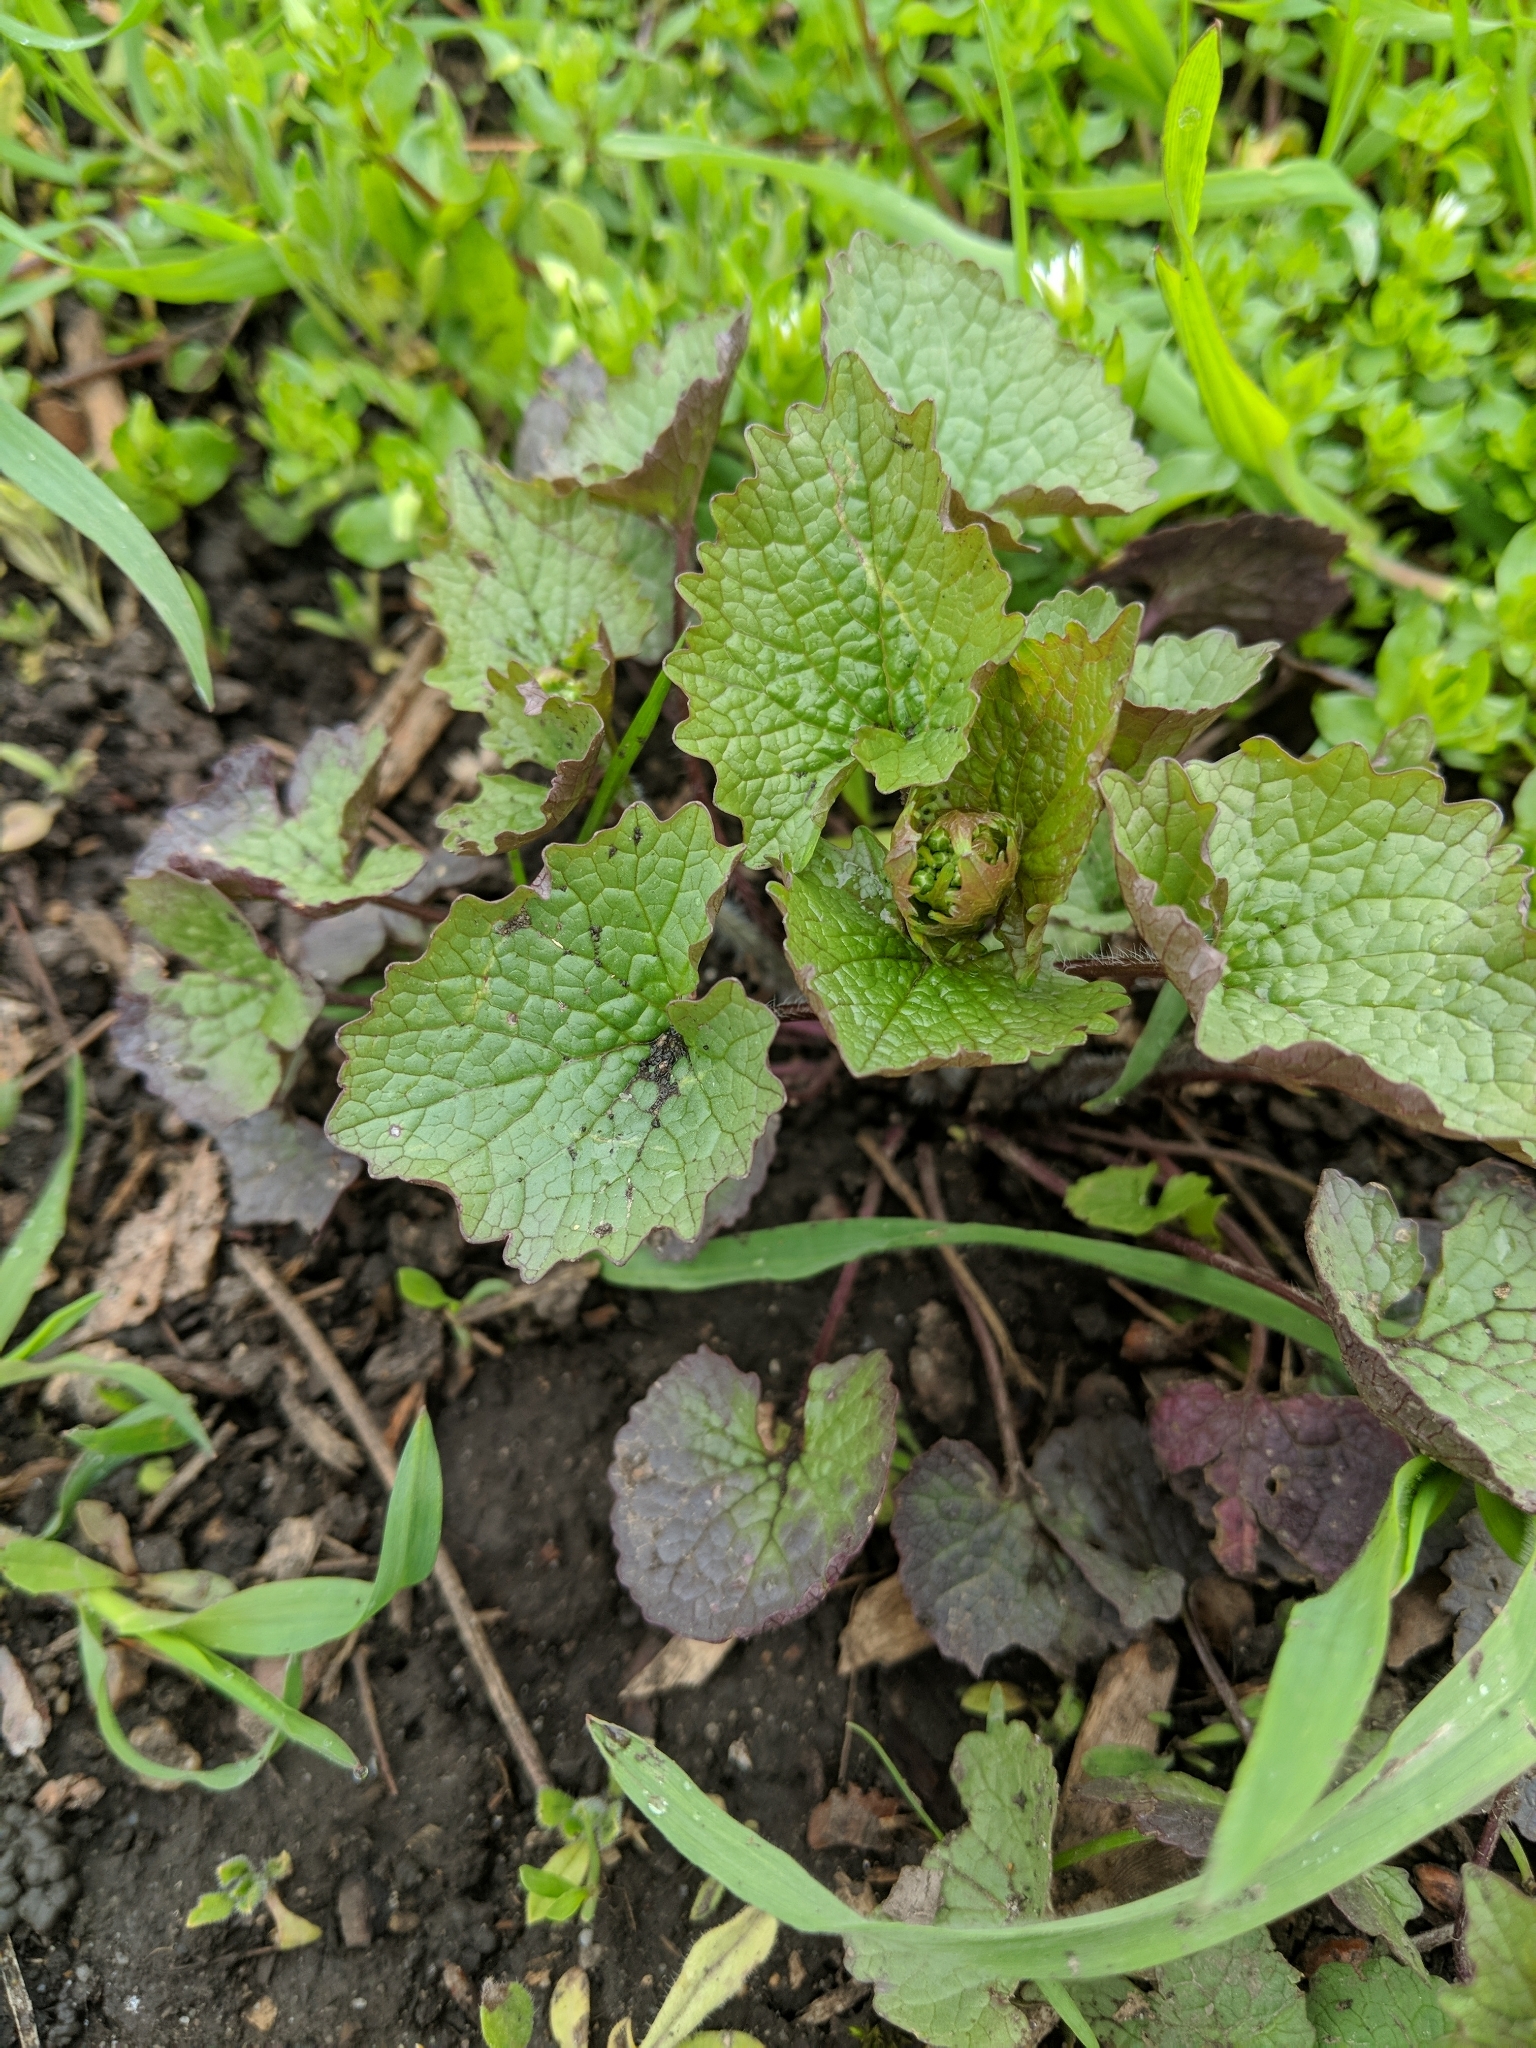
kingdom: Plantae
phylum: Tracheophyta
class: Magnoliopsida
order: Brassicales
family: Brassicaceae
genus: Alliaria
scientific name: Alliaria petiolata
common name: Garlic mustard
